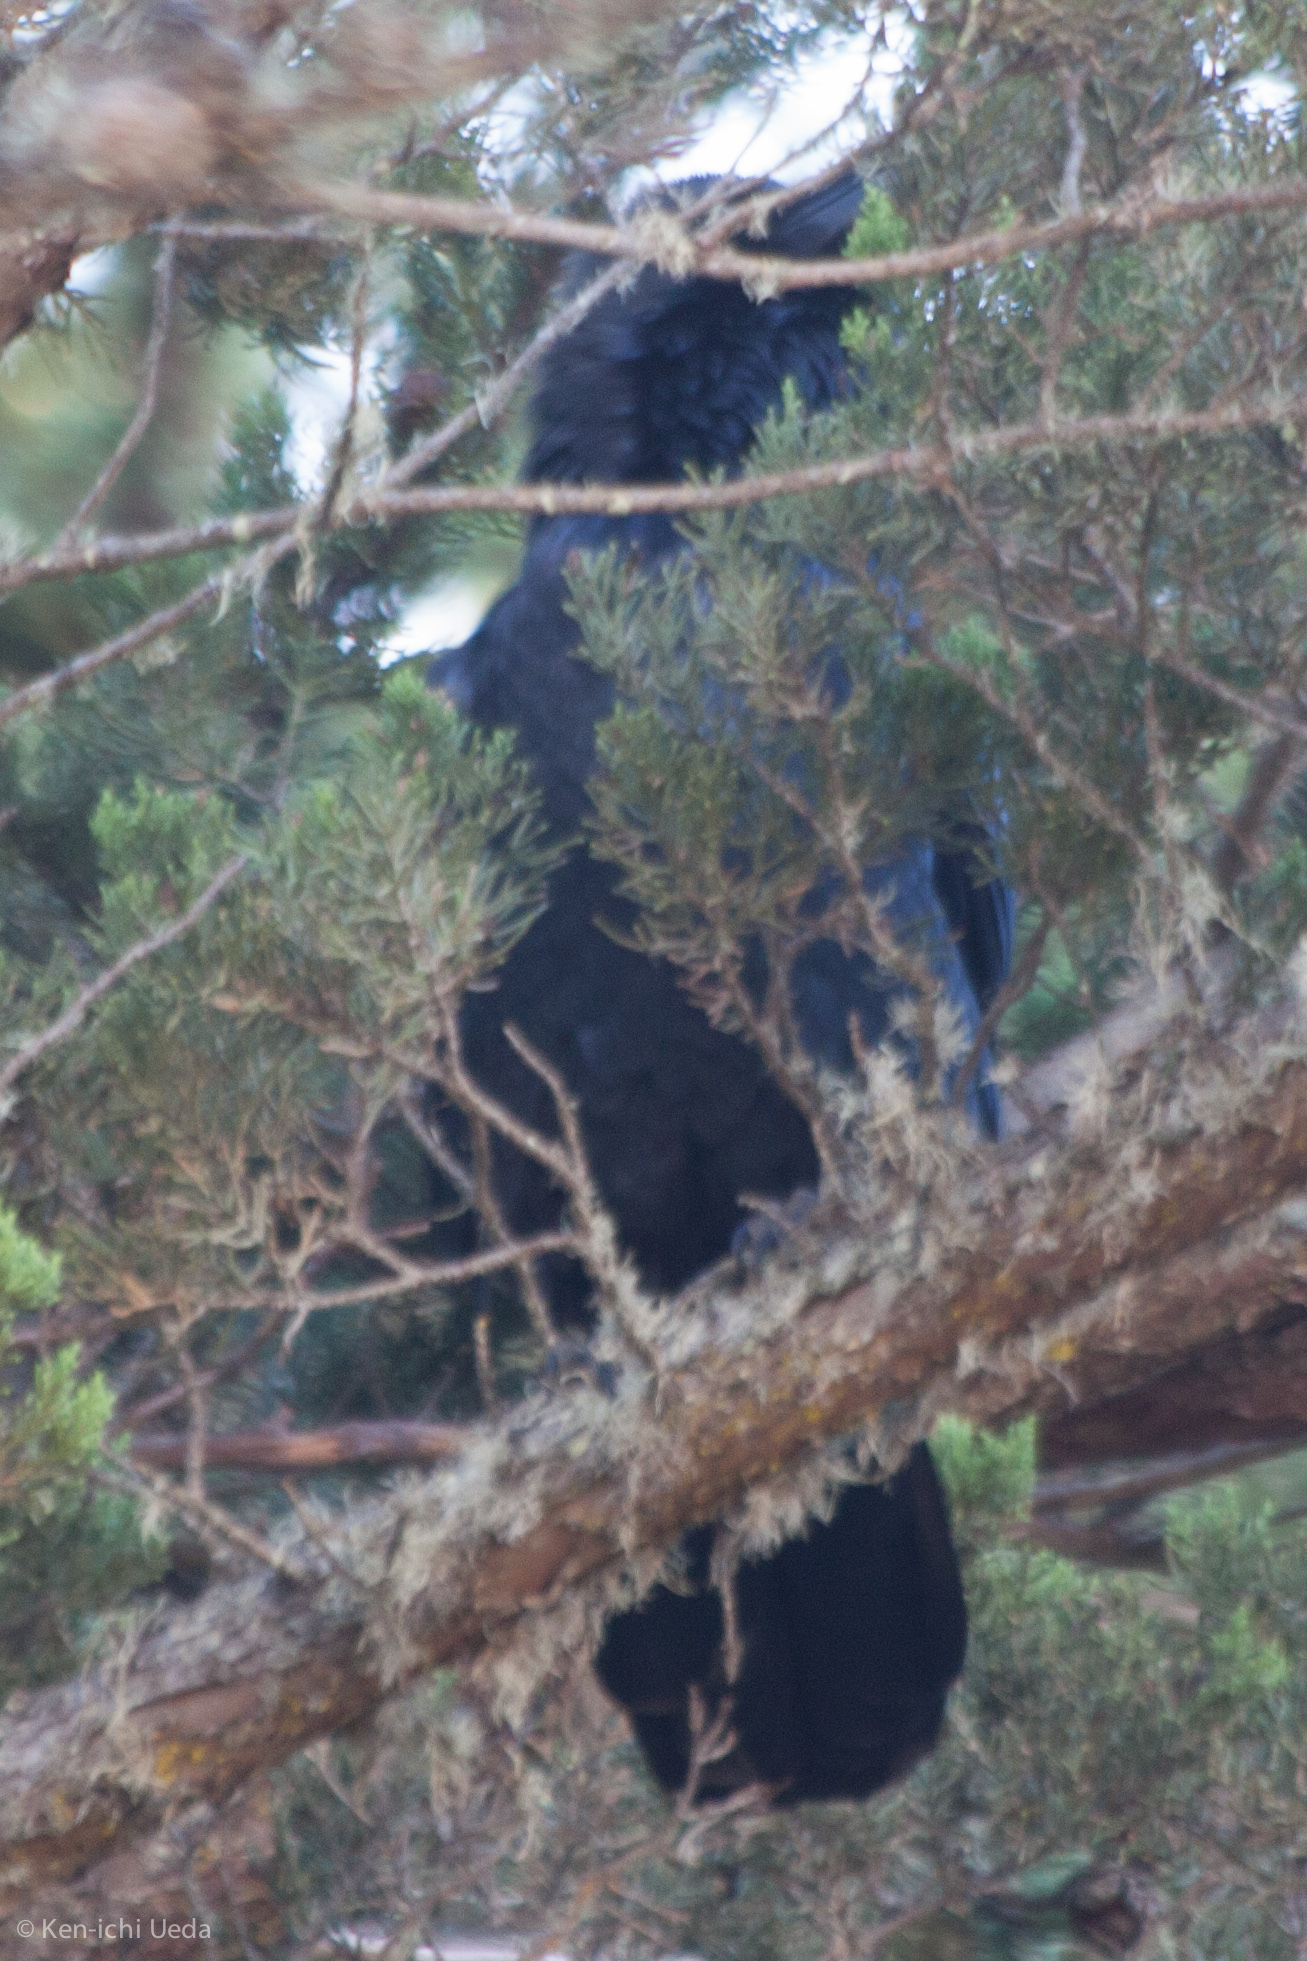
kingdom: Animalia
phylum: Chordata
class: Aves
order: Passeriformes
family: Corvidae
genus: Corvus
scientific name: Corvus corax
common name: Common raven
